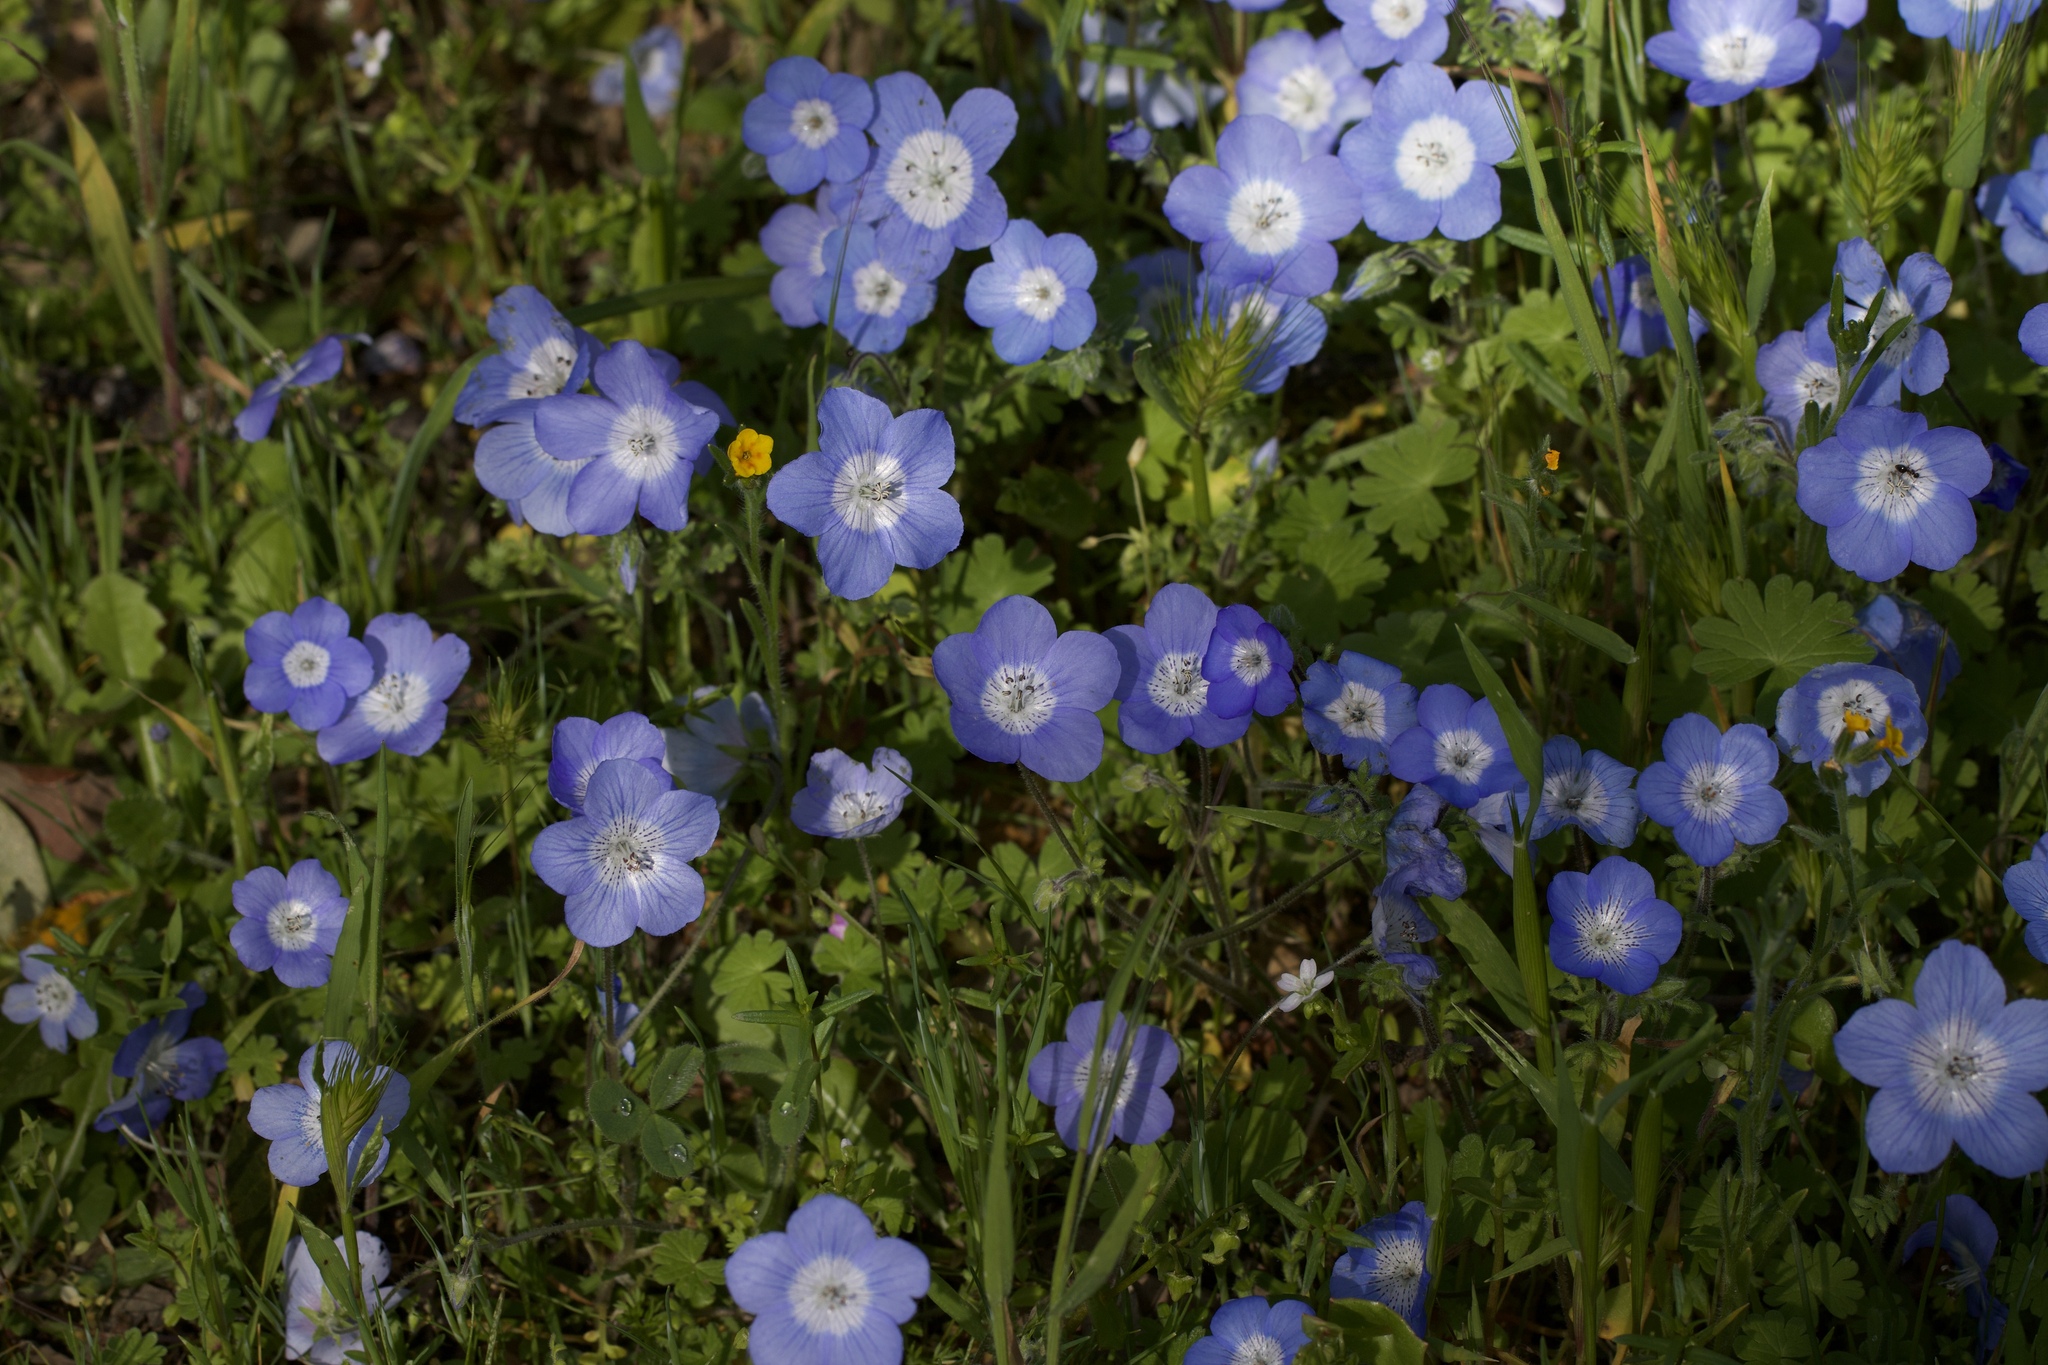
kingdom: Plantae
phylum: Tracheophyta
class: Magnoliopsida
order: Boraginales
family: Hydrophyllaceae
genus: Nemophila
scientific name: Nemophila menziesii
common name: Baby's-blue-eyes
